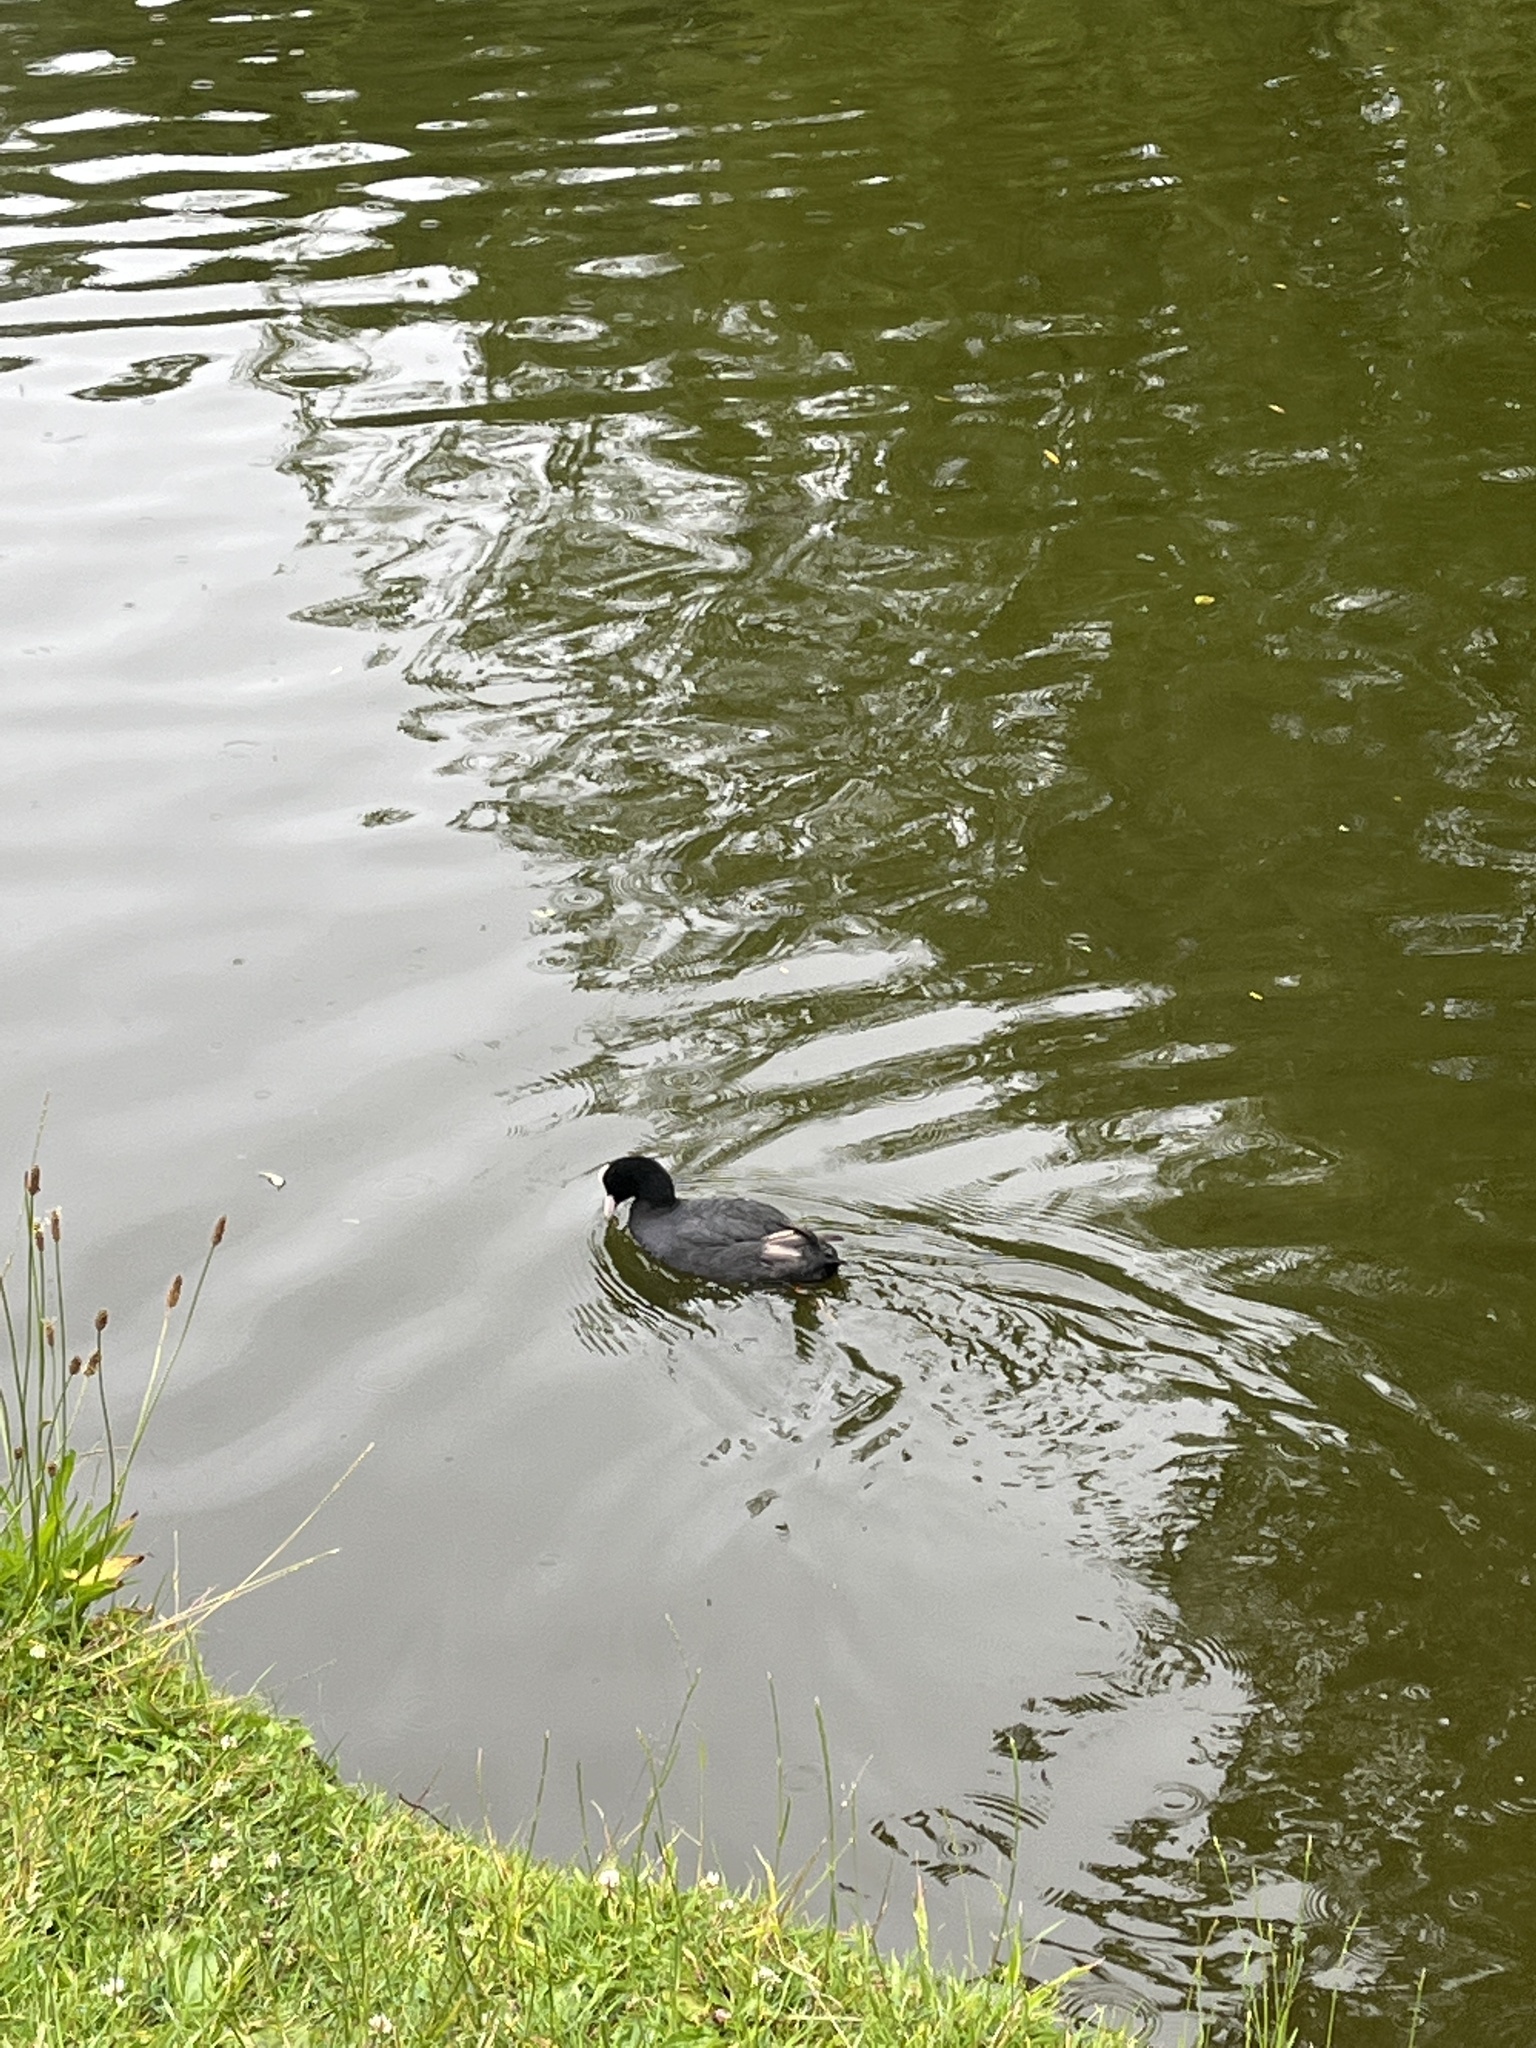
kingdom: Animalia
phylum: Chordata
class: Aves
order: Gruiformes
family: Rallidae
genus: Fulica
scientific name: Fulica atra
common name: Eurasian coot
